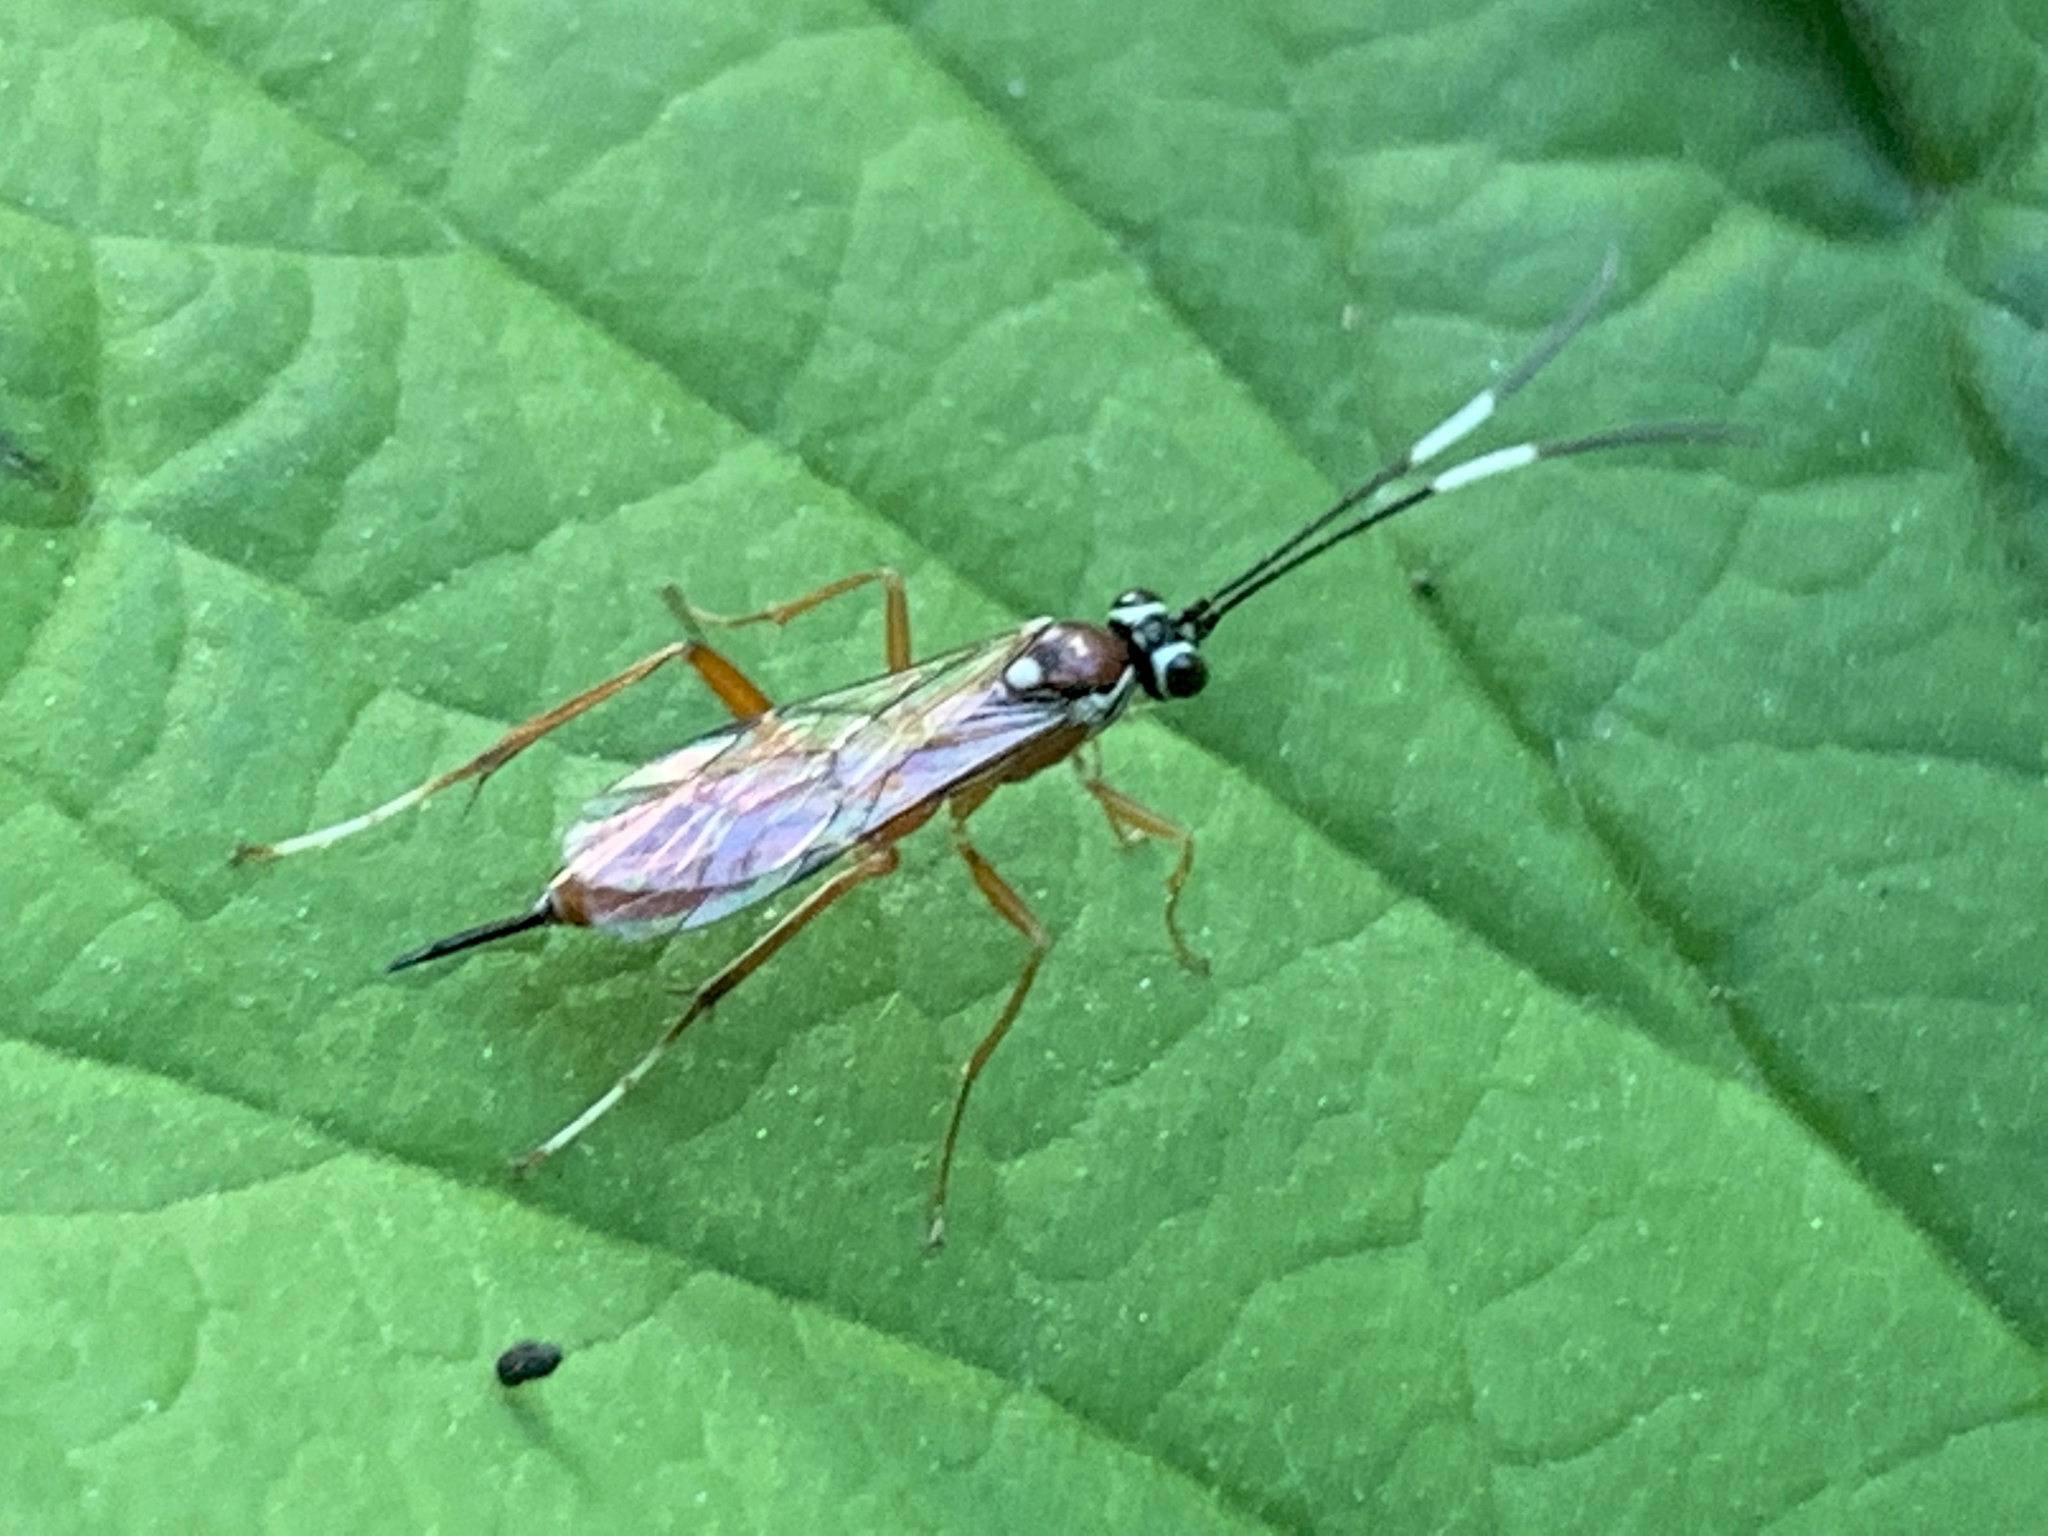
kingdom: Animalia
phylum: Arthropoda
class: Insecta
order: Hymenoptera
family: Ichneumonidae
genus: Ischnus
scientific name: Ischnus inquisitorius
